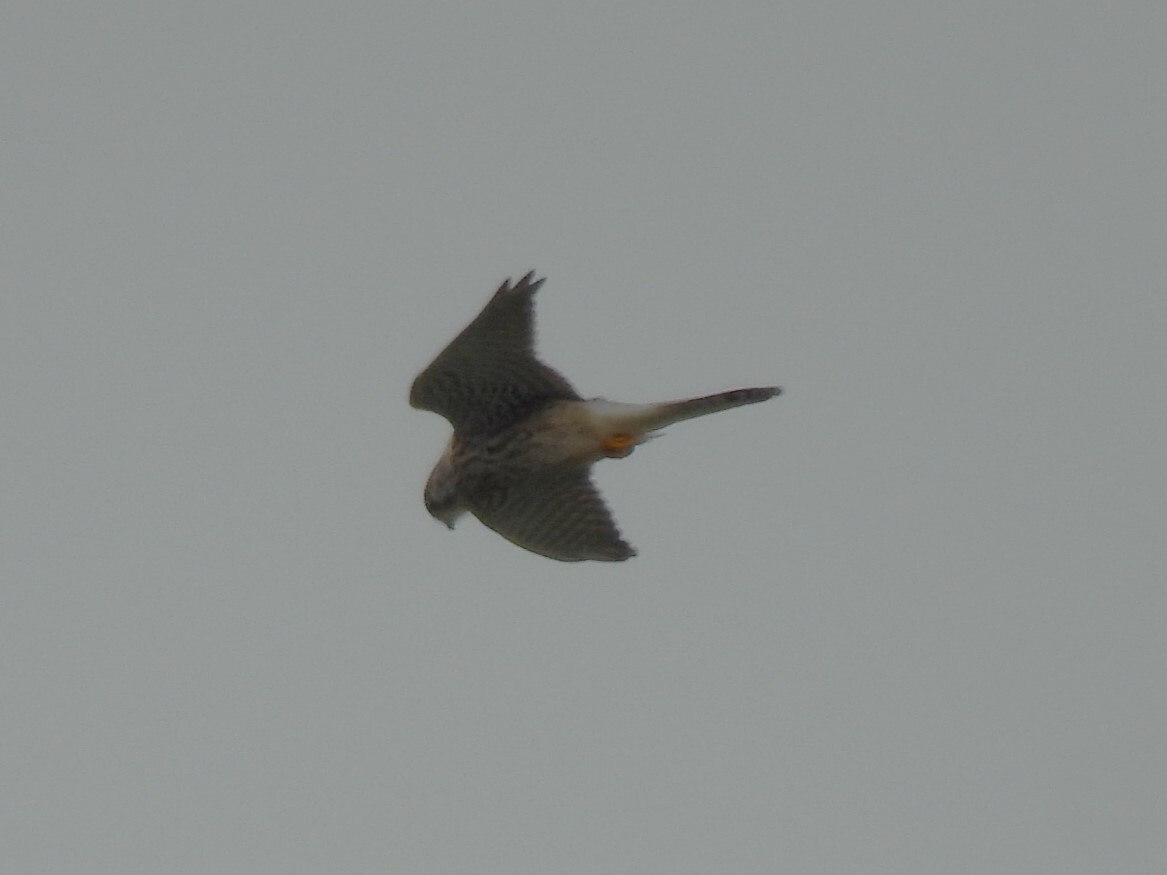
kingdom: Animalia
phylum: Chordata
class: Aves
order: Falconiformes
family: Falconidae
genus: Falco
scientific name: Falco tinnunculus
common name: Common kestrel
